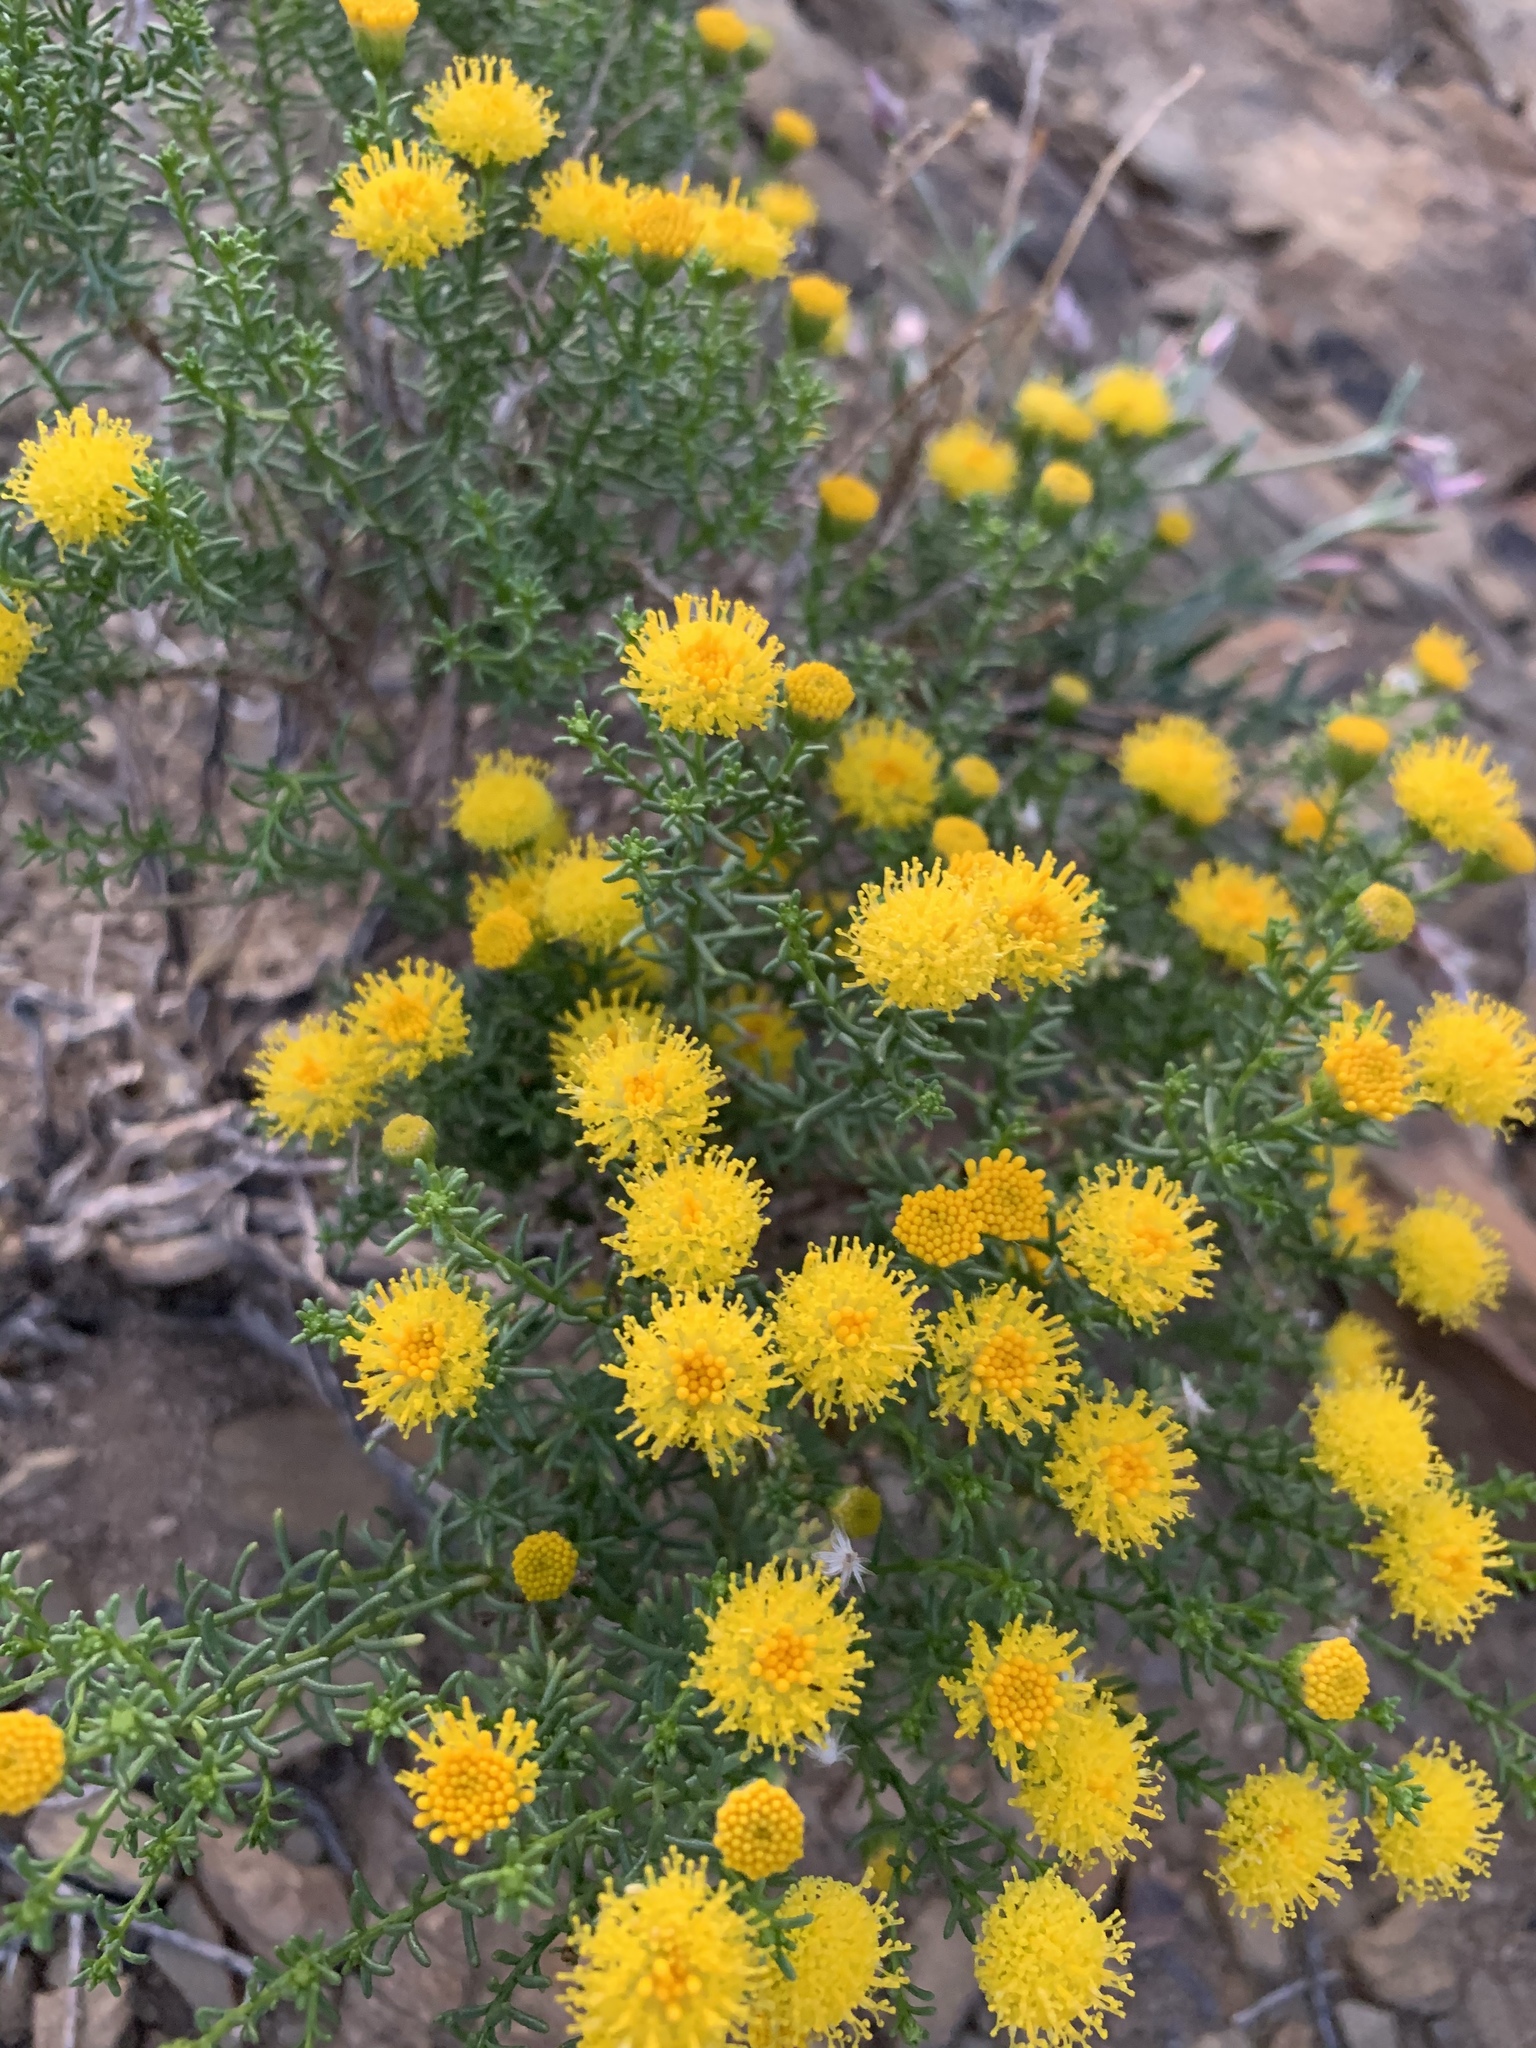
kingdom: Plantae
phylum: Tracheophyta
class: Magnoliopsida
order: Asterales
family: Asteraceae
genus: Chrysocoma
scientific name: Chrysocoma ciliata
